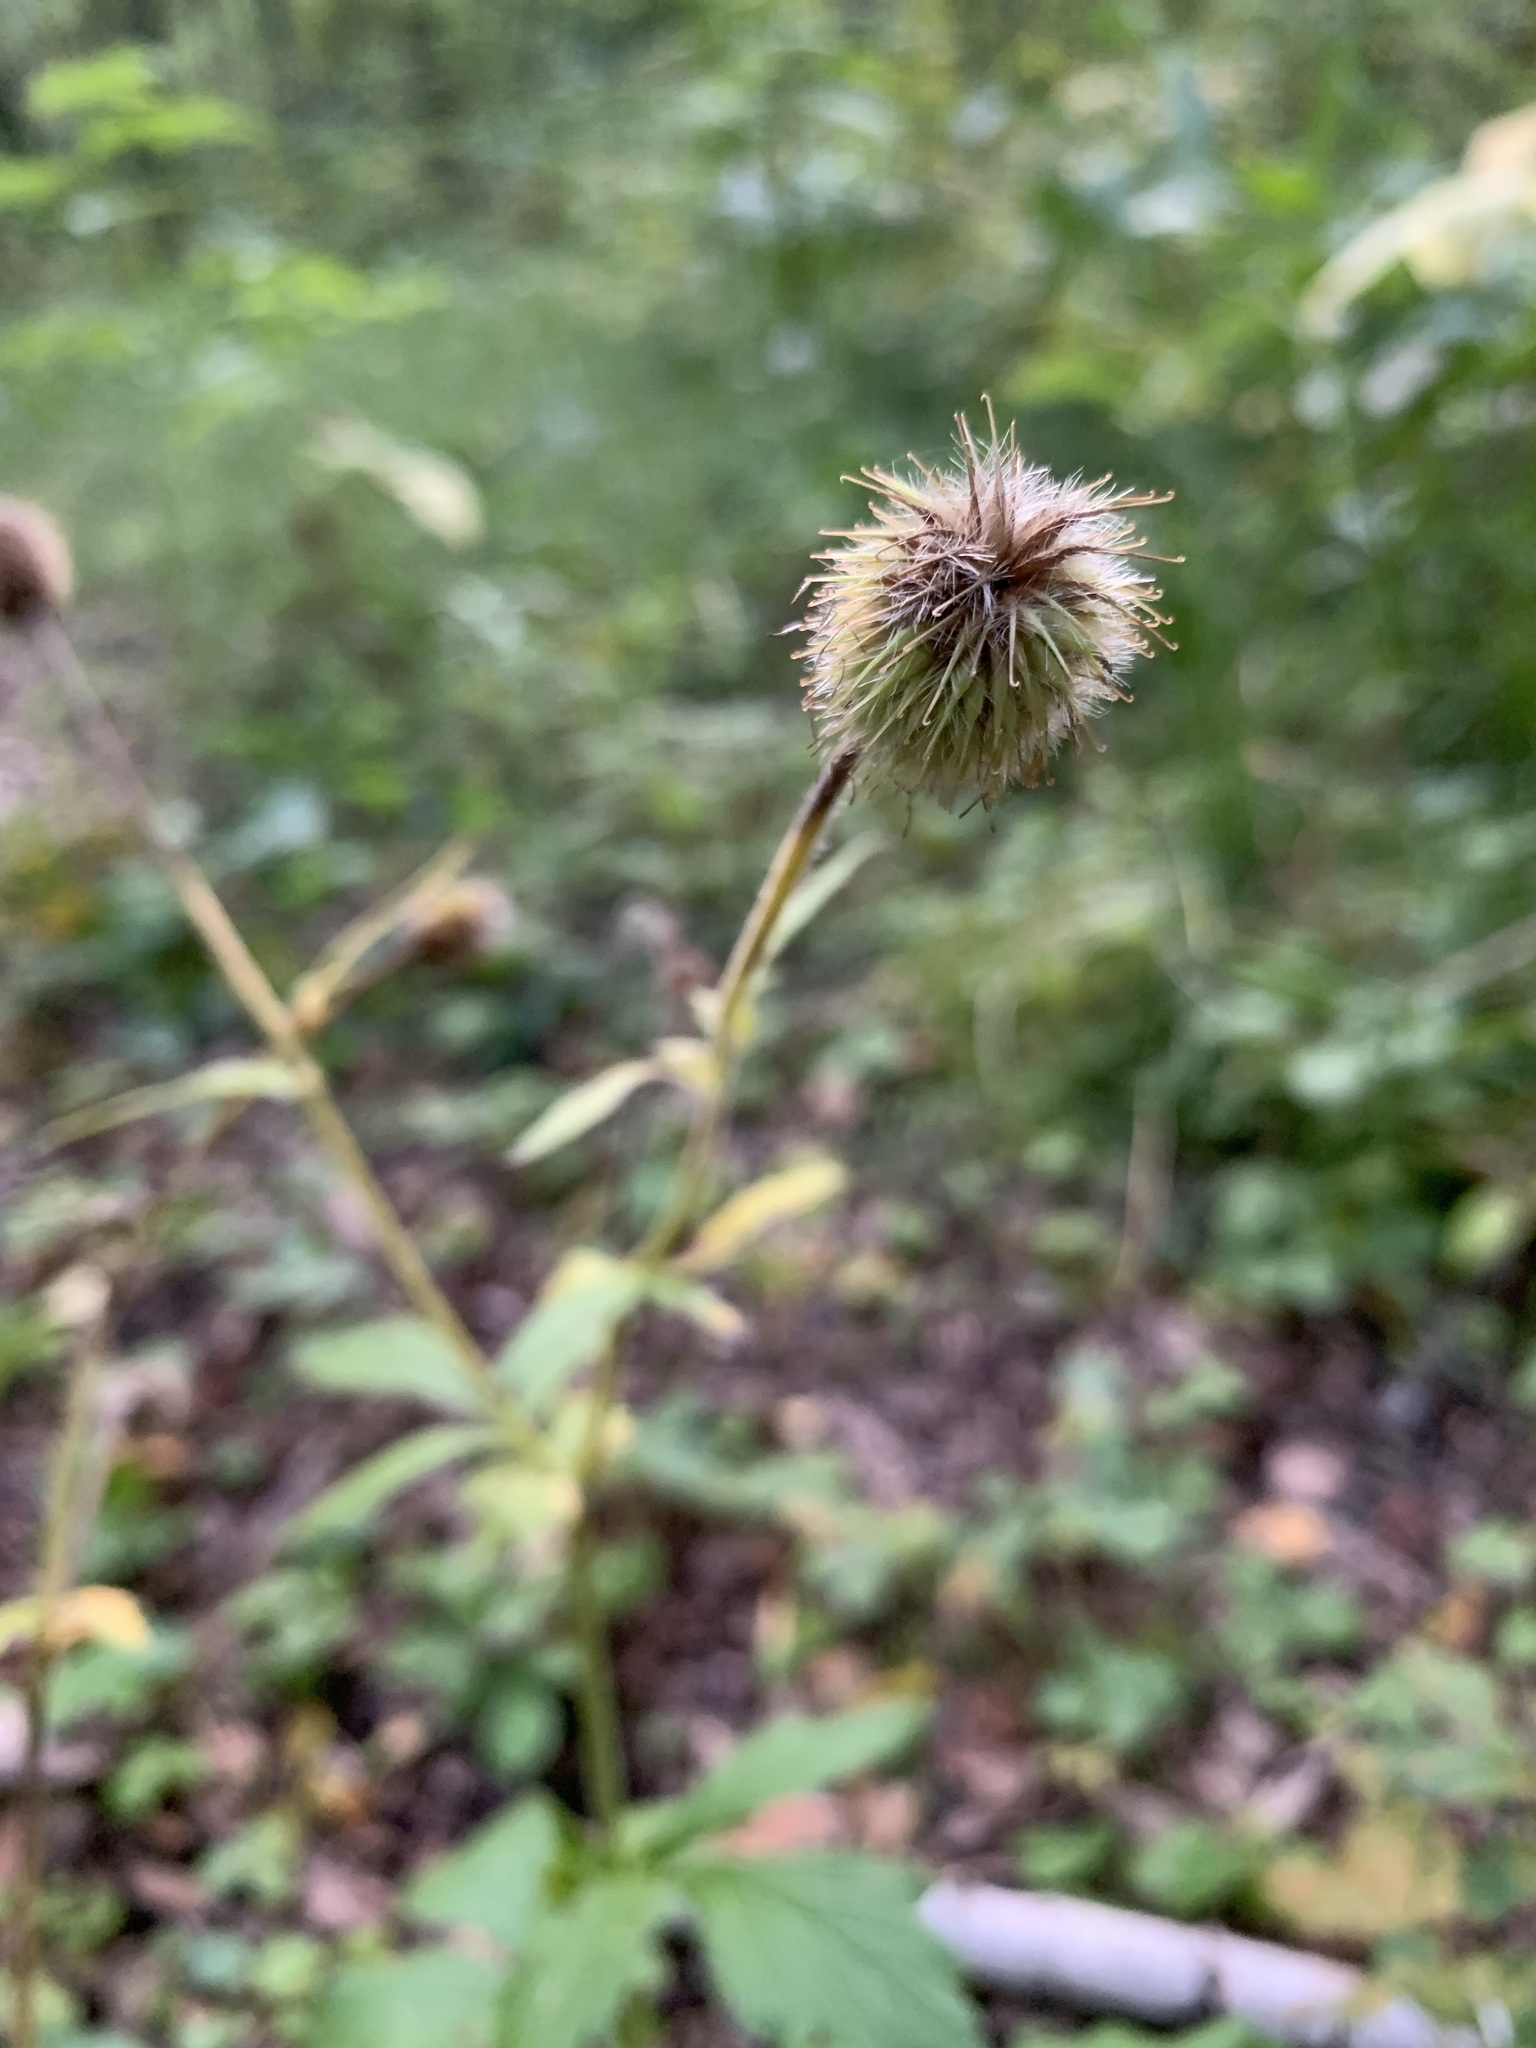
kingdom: Plantae
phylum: Tracheophyta
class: Magnoliopsida
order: Rosales
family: Rosaceae
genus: Geum
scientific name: Geum aleppicum
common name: Yellow avens
